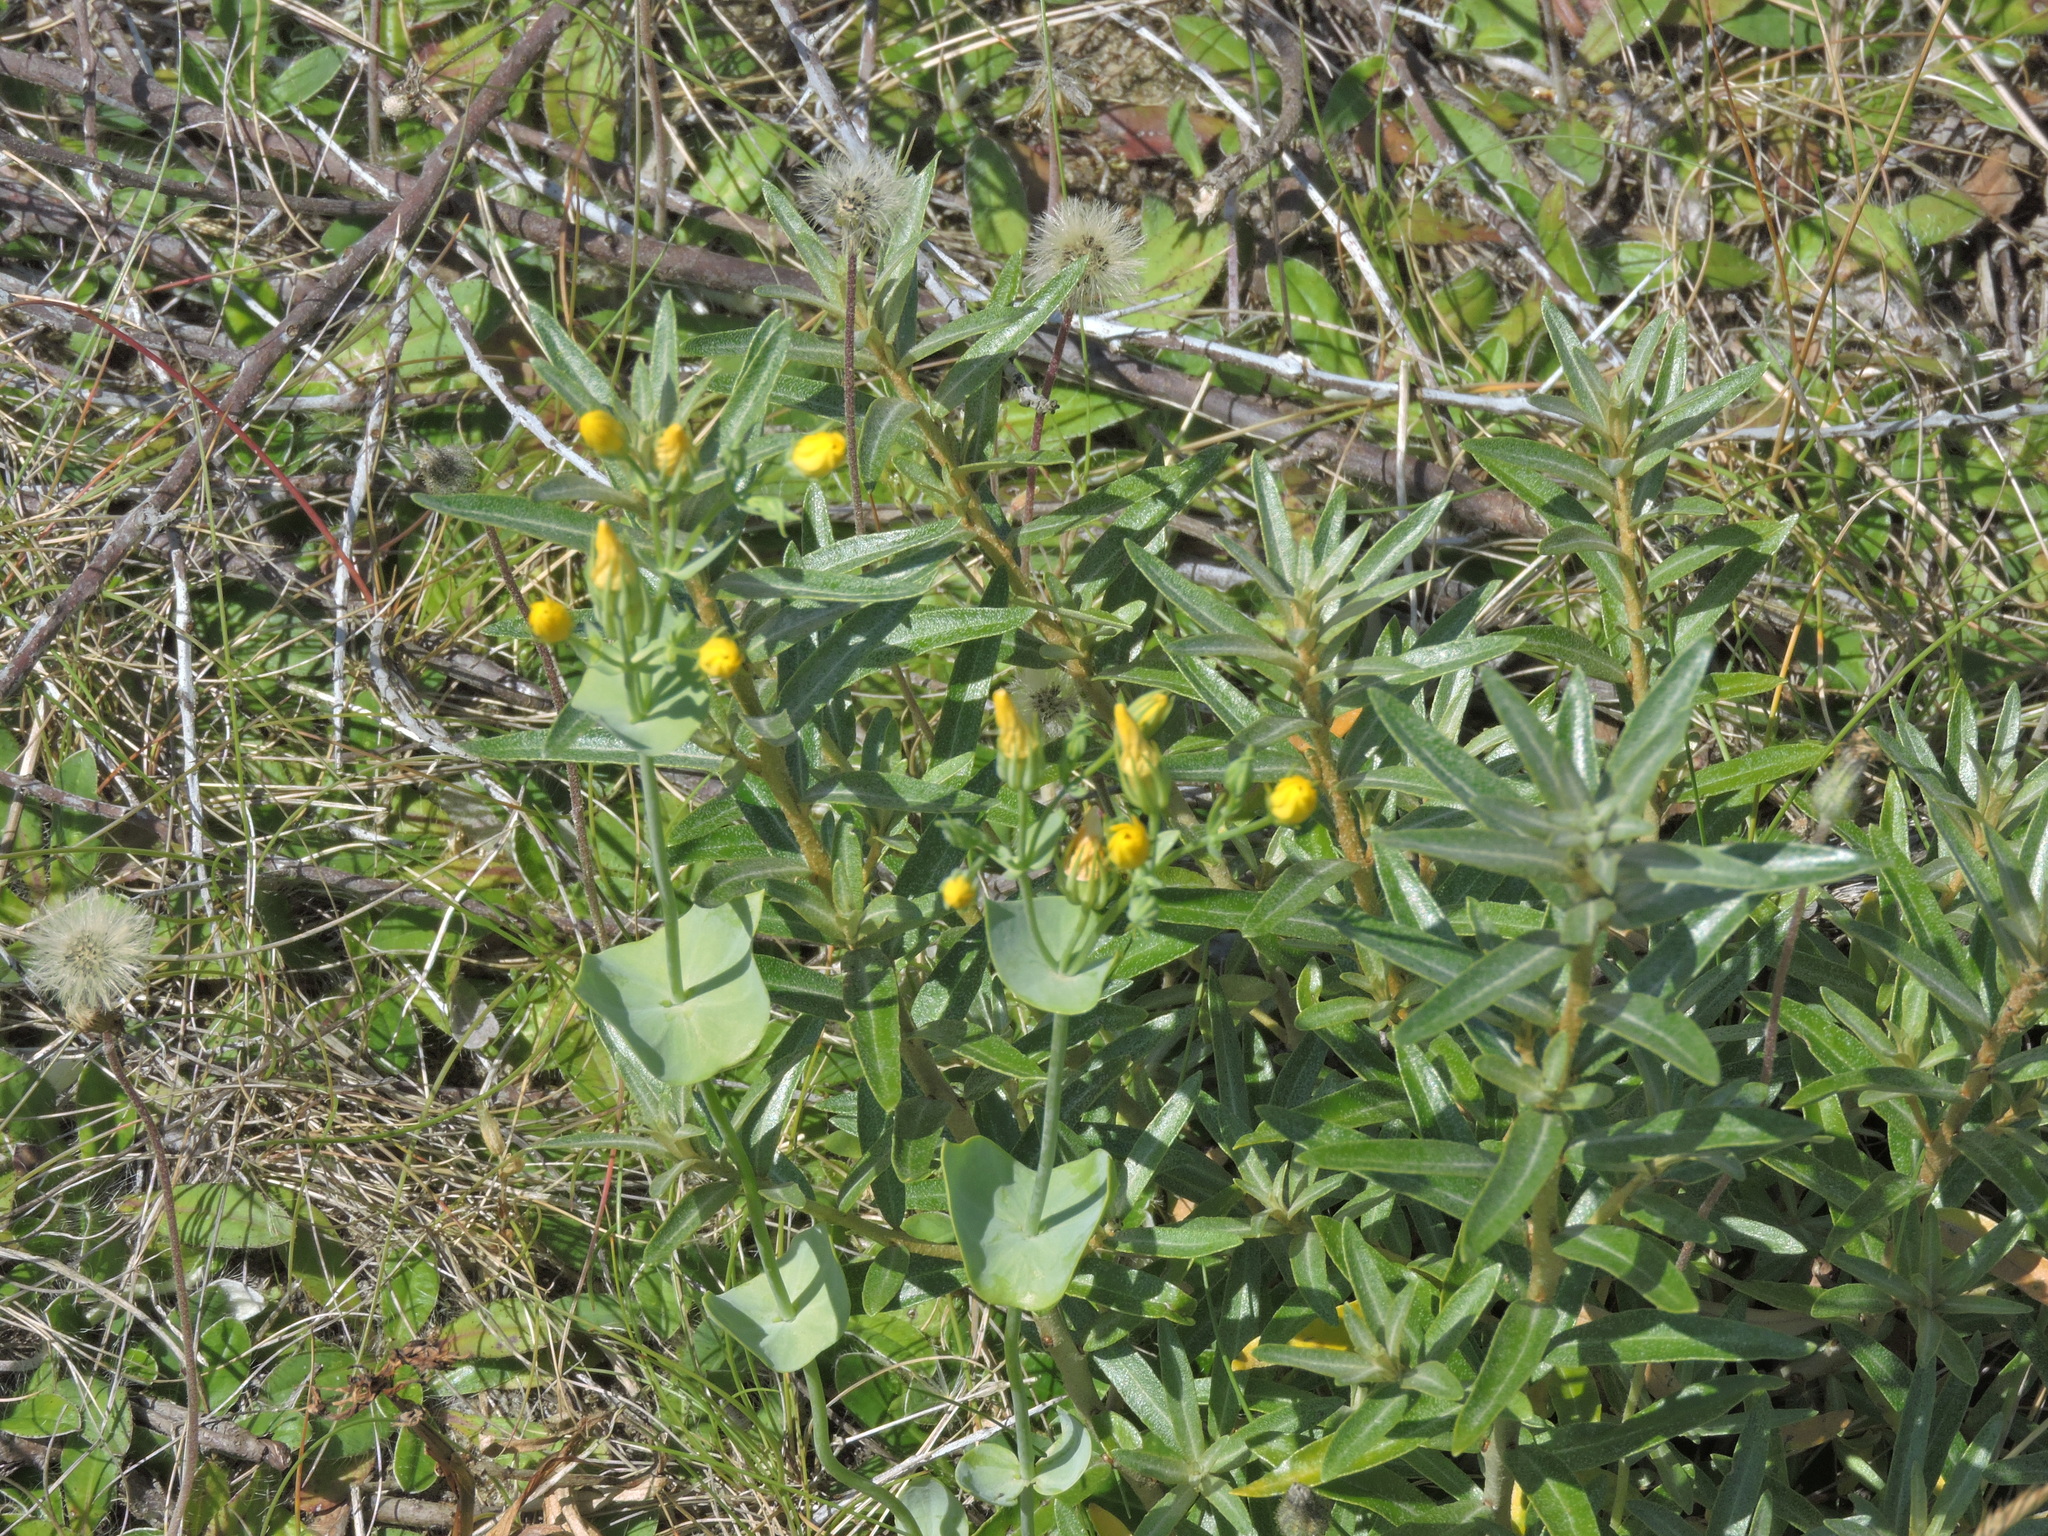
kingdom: Plantae
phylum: Tracheophyta
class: Magnoliopsida
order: Gentianales
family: Gentianaceae
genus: Blackstonia
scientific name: Blackstonia perfoliata
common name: Yellow-wort
